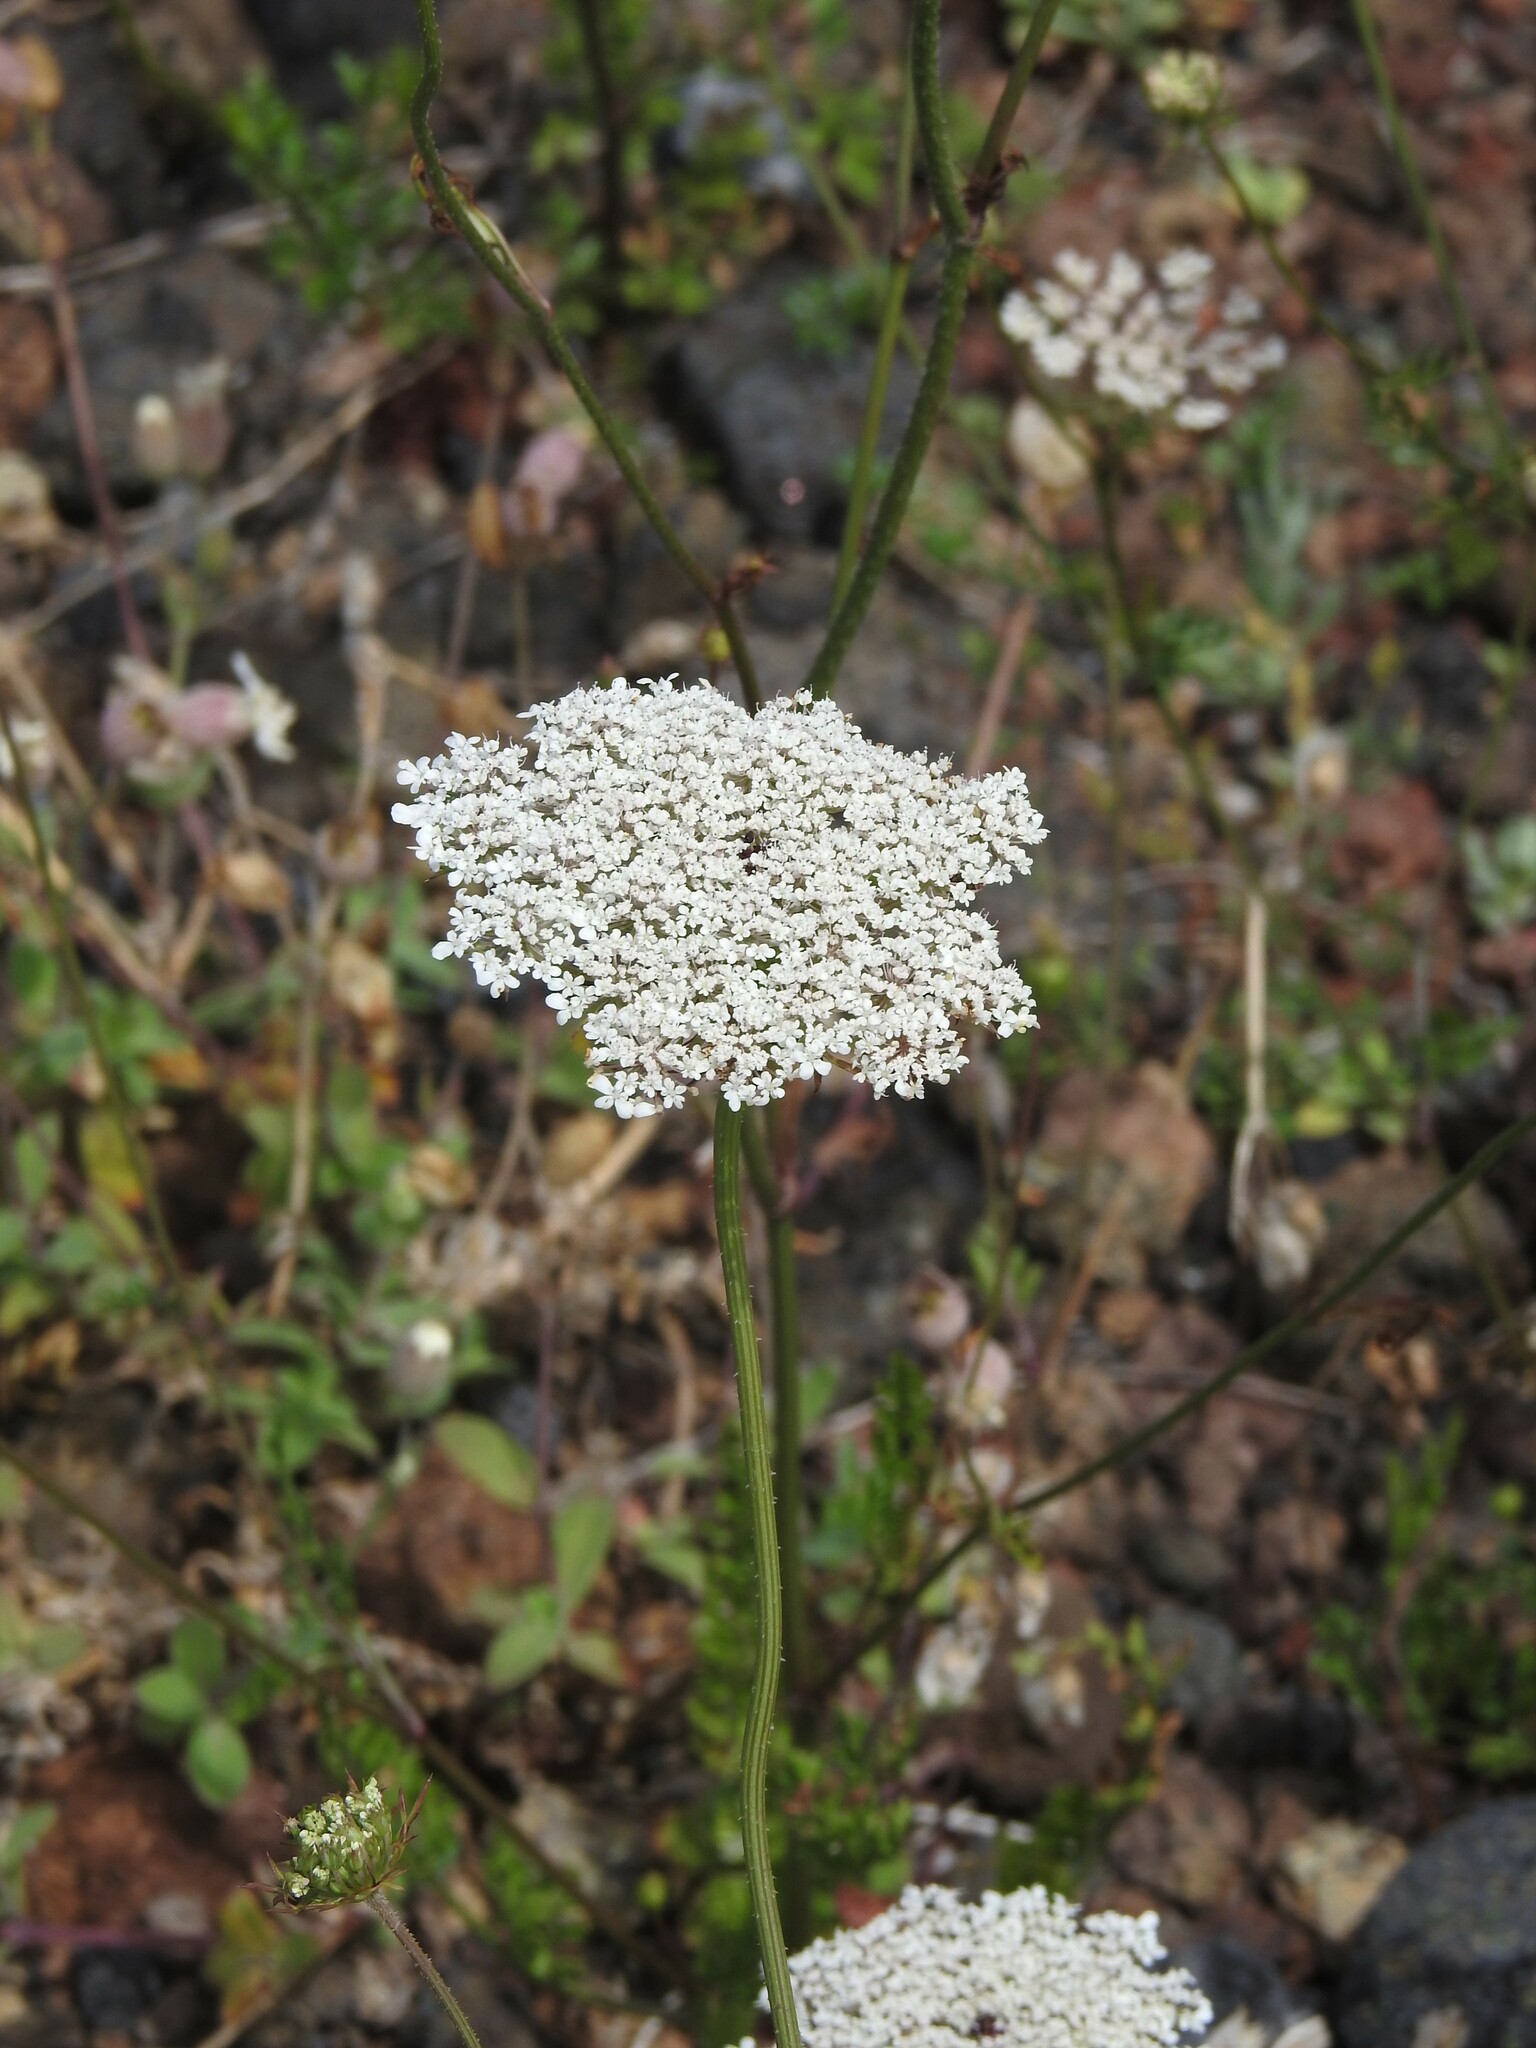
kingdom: Plantae
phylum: Tracheophyta
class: Magnoliopsida
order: Apiales
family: Apiaceae
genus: Daucus
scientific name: Daucus carota
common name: Wild carrot
